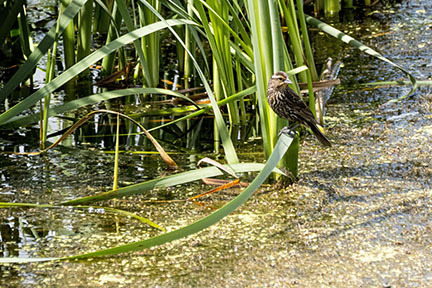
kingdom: Animalia
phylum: Chordata
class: Aves
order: Passeriformes
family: Icteridae
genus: Agelaius
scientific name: Agelaius phoeniceus
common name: Red-winged blackbird
